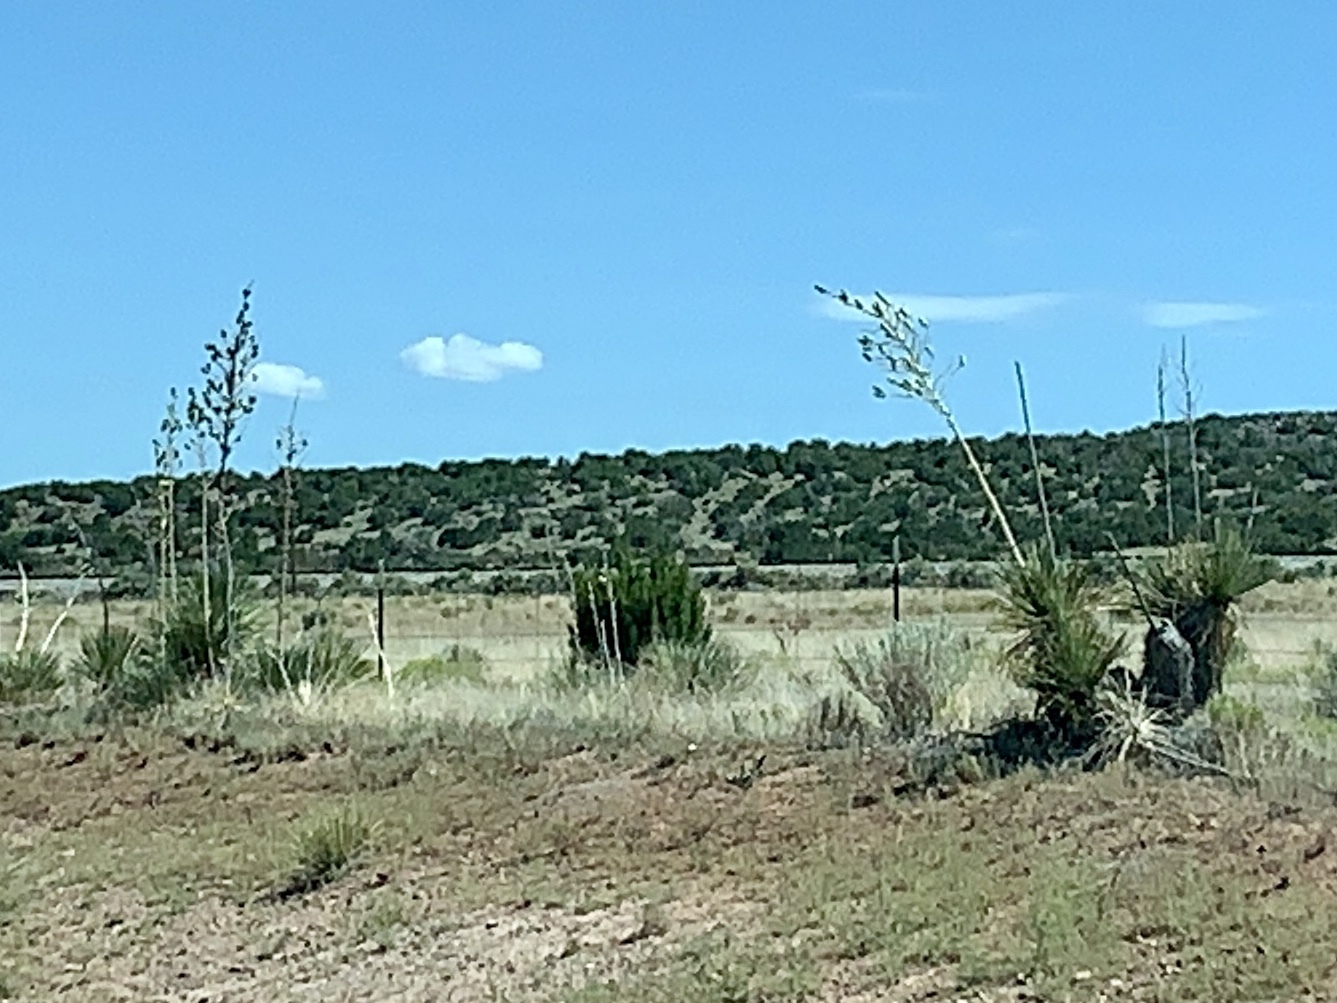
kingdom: Plantae
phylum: Tracheophyta
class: Liliopsida
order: Asparagales
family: Asparagaceae
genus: Yucca
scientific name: Yucca elata
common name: Palmella
